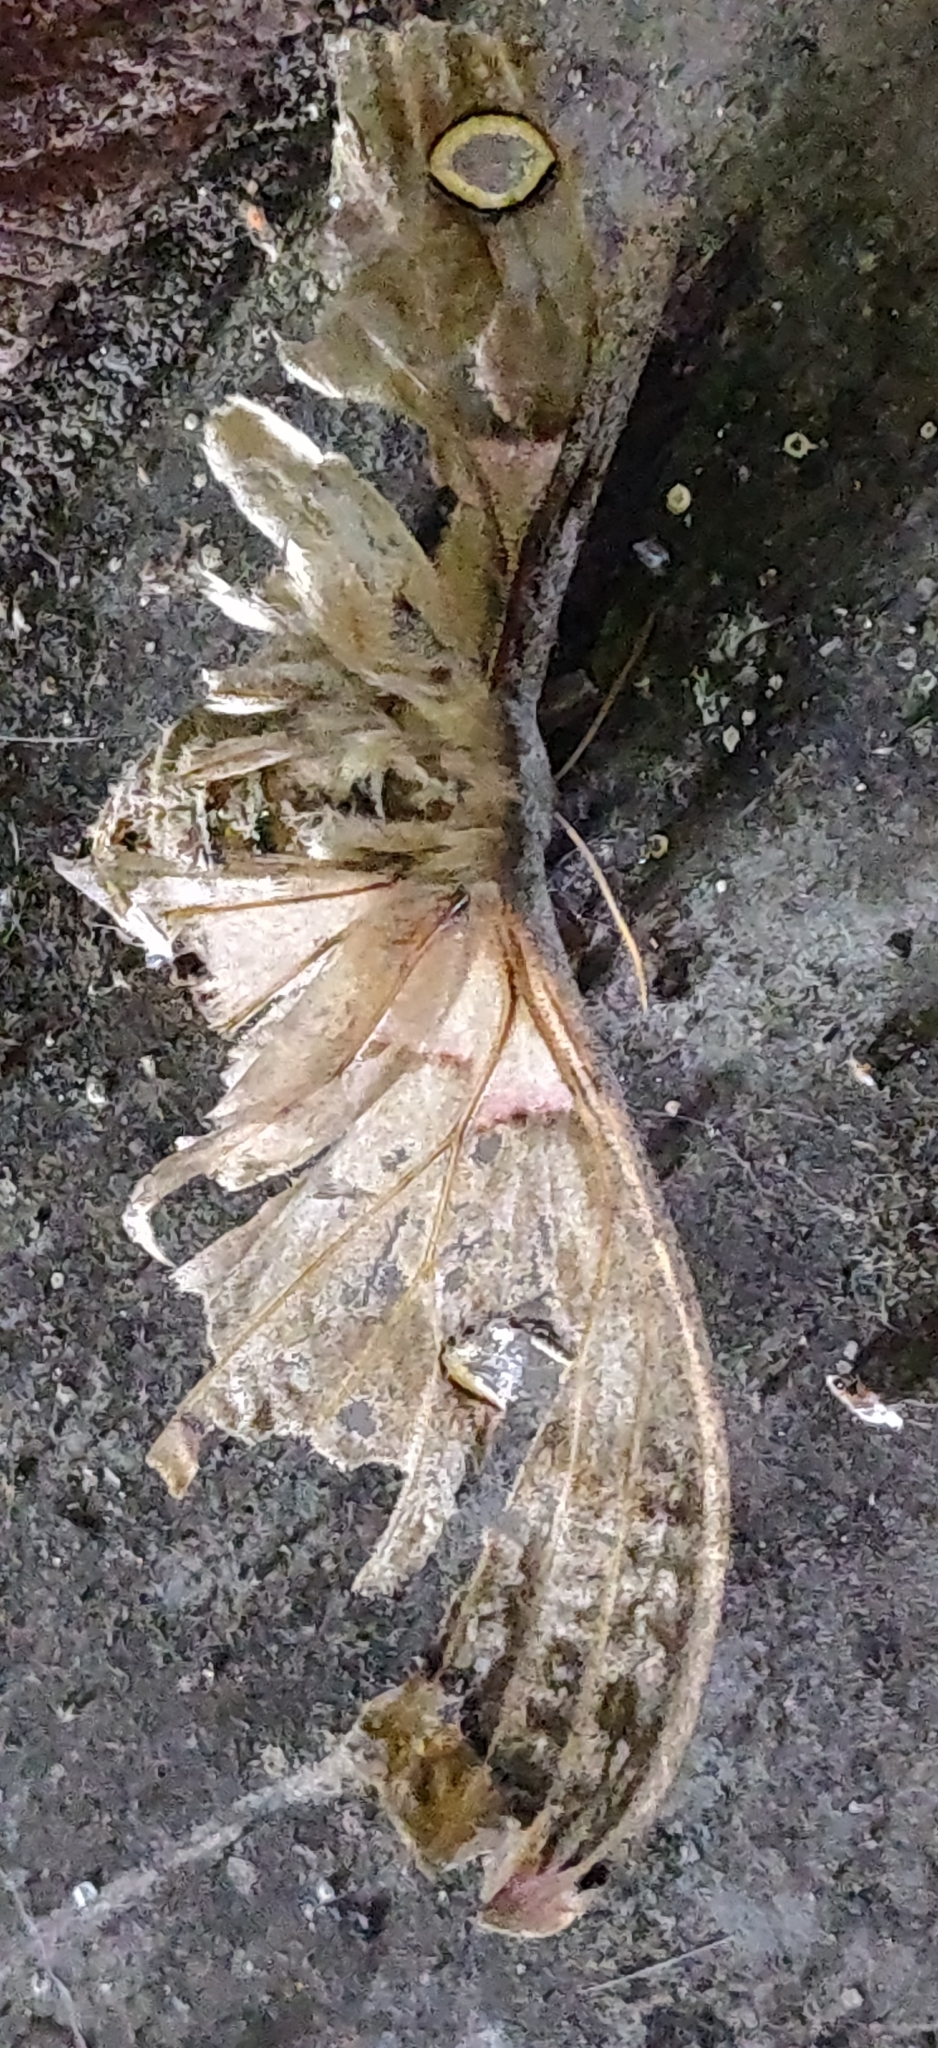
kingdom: Animalia
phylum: Arthropoda
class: Insecta
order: Lepidoptera
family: Saturniidae
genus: Antheraea
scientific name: Antheraea polyphemus
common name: Polyphemus moth
